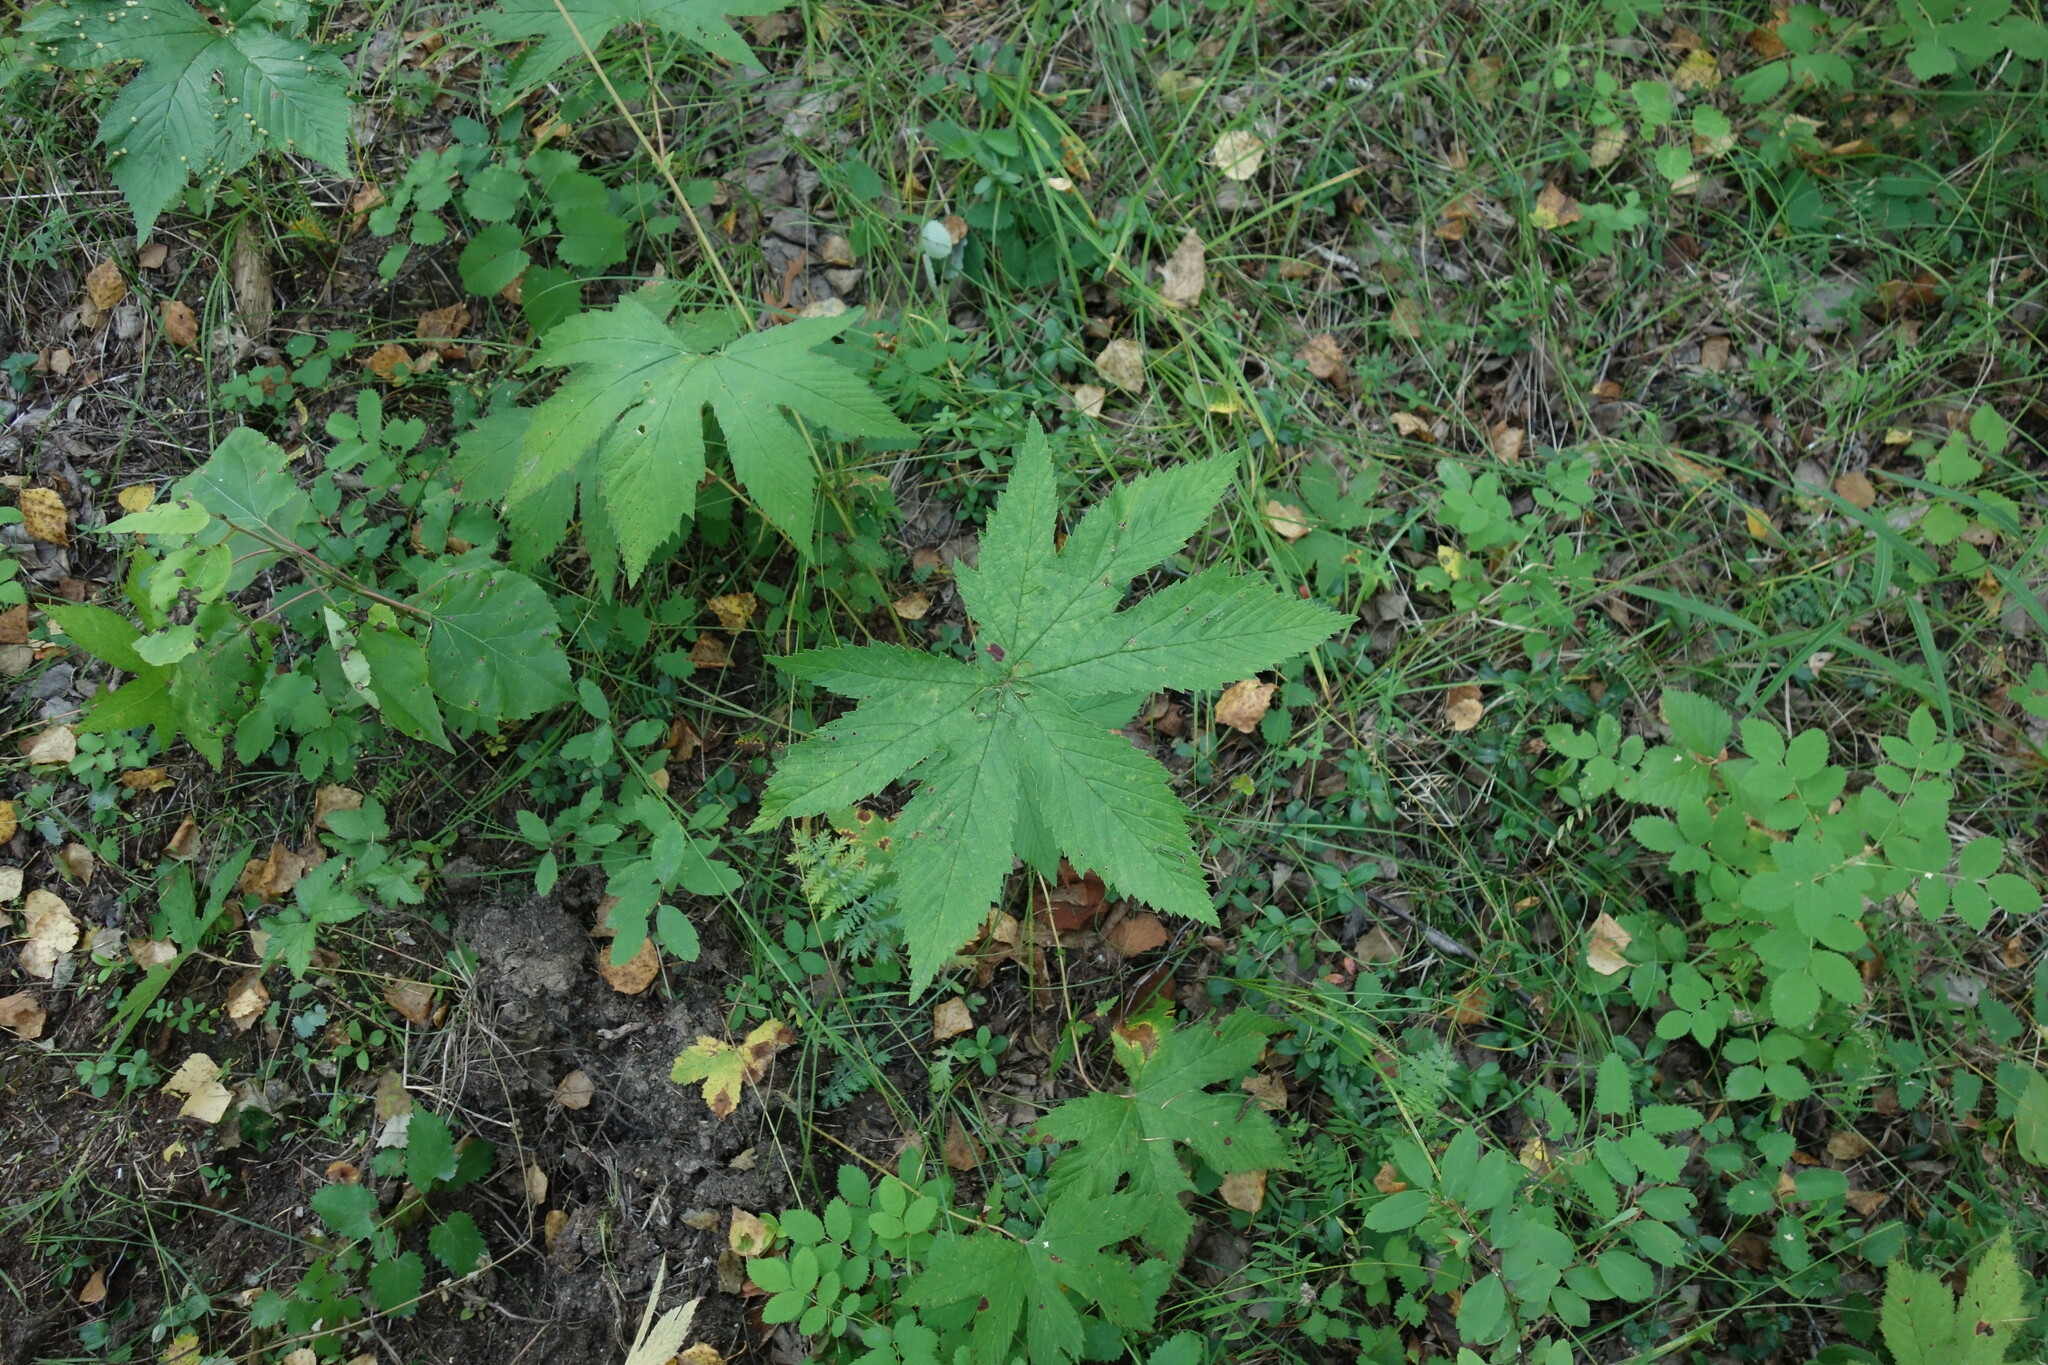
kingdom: Plantae
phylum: Tracheophyta
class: Magnoliopsida
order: Rosales
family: Rosaceae
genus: Filipendula
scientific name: Filipendula digitata
